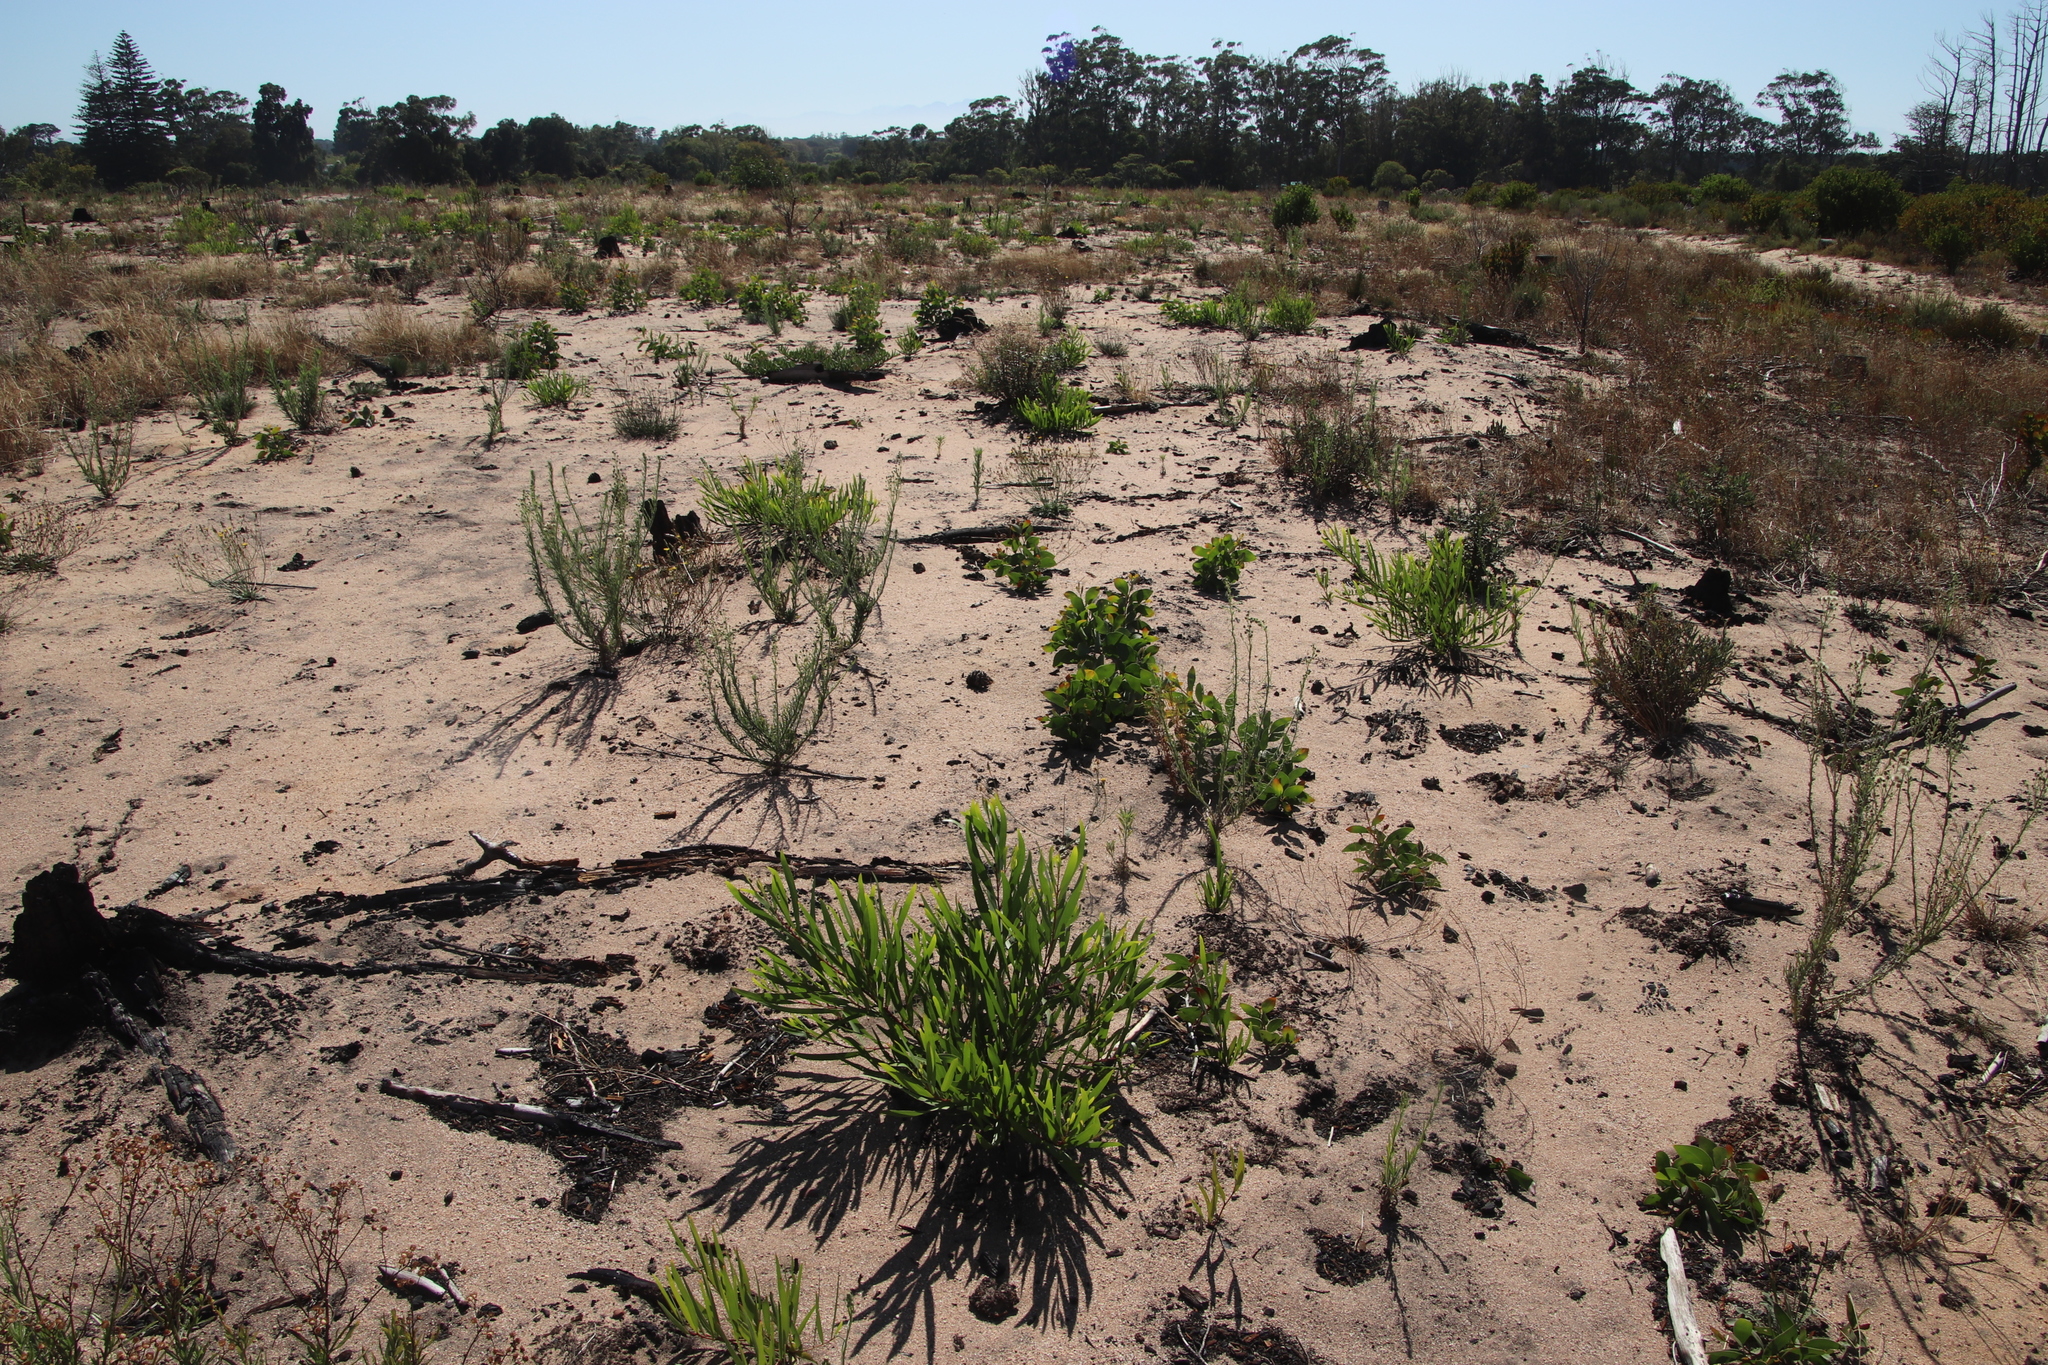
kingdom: Plantae
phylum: Tracheophyta
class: Magnoliopsida
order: Fabales
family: Fabaceae
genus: Acacia
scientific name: Acacia longifolia
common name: Sydney golden wattle
